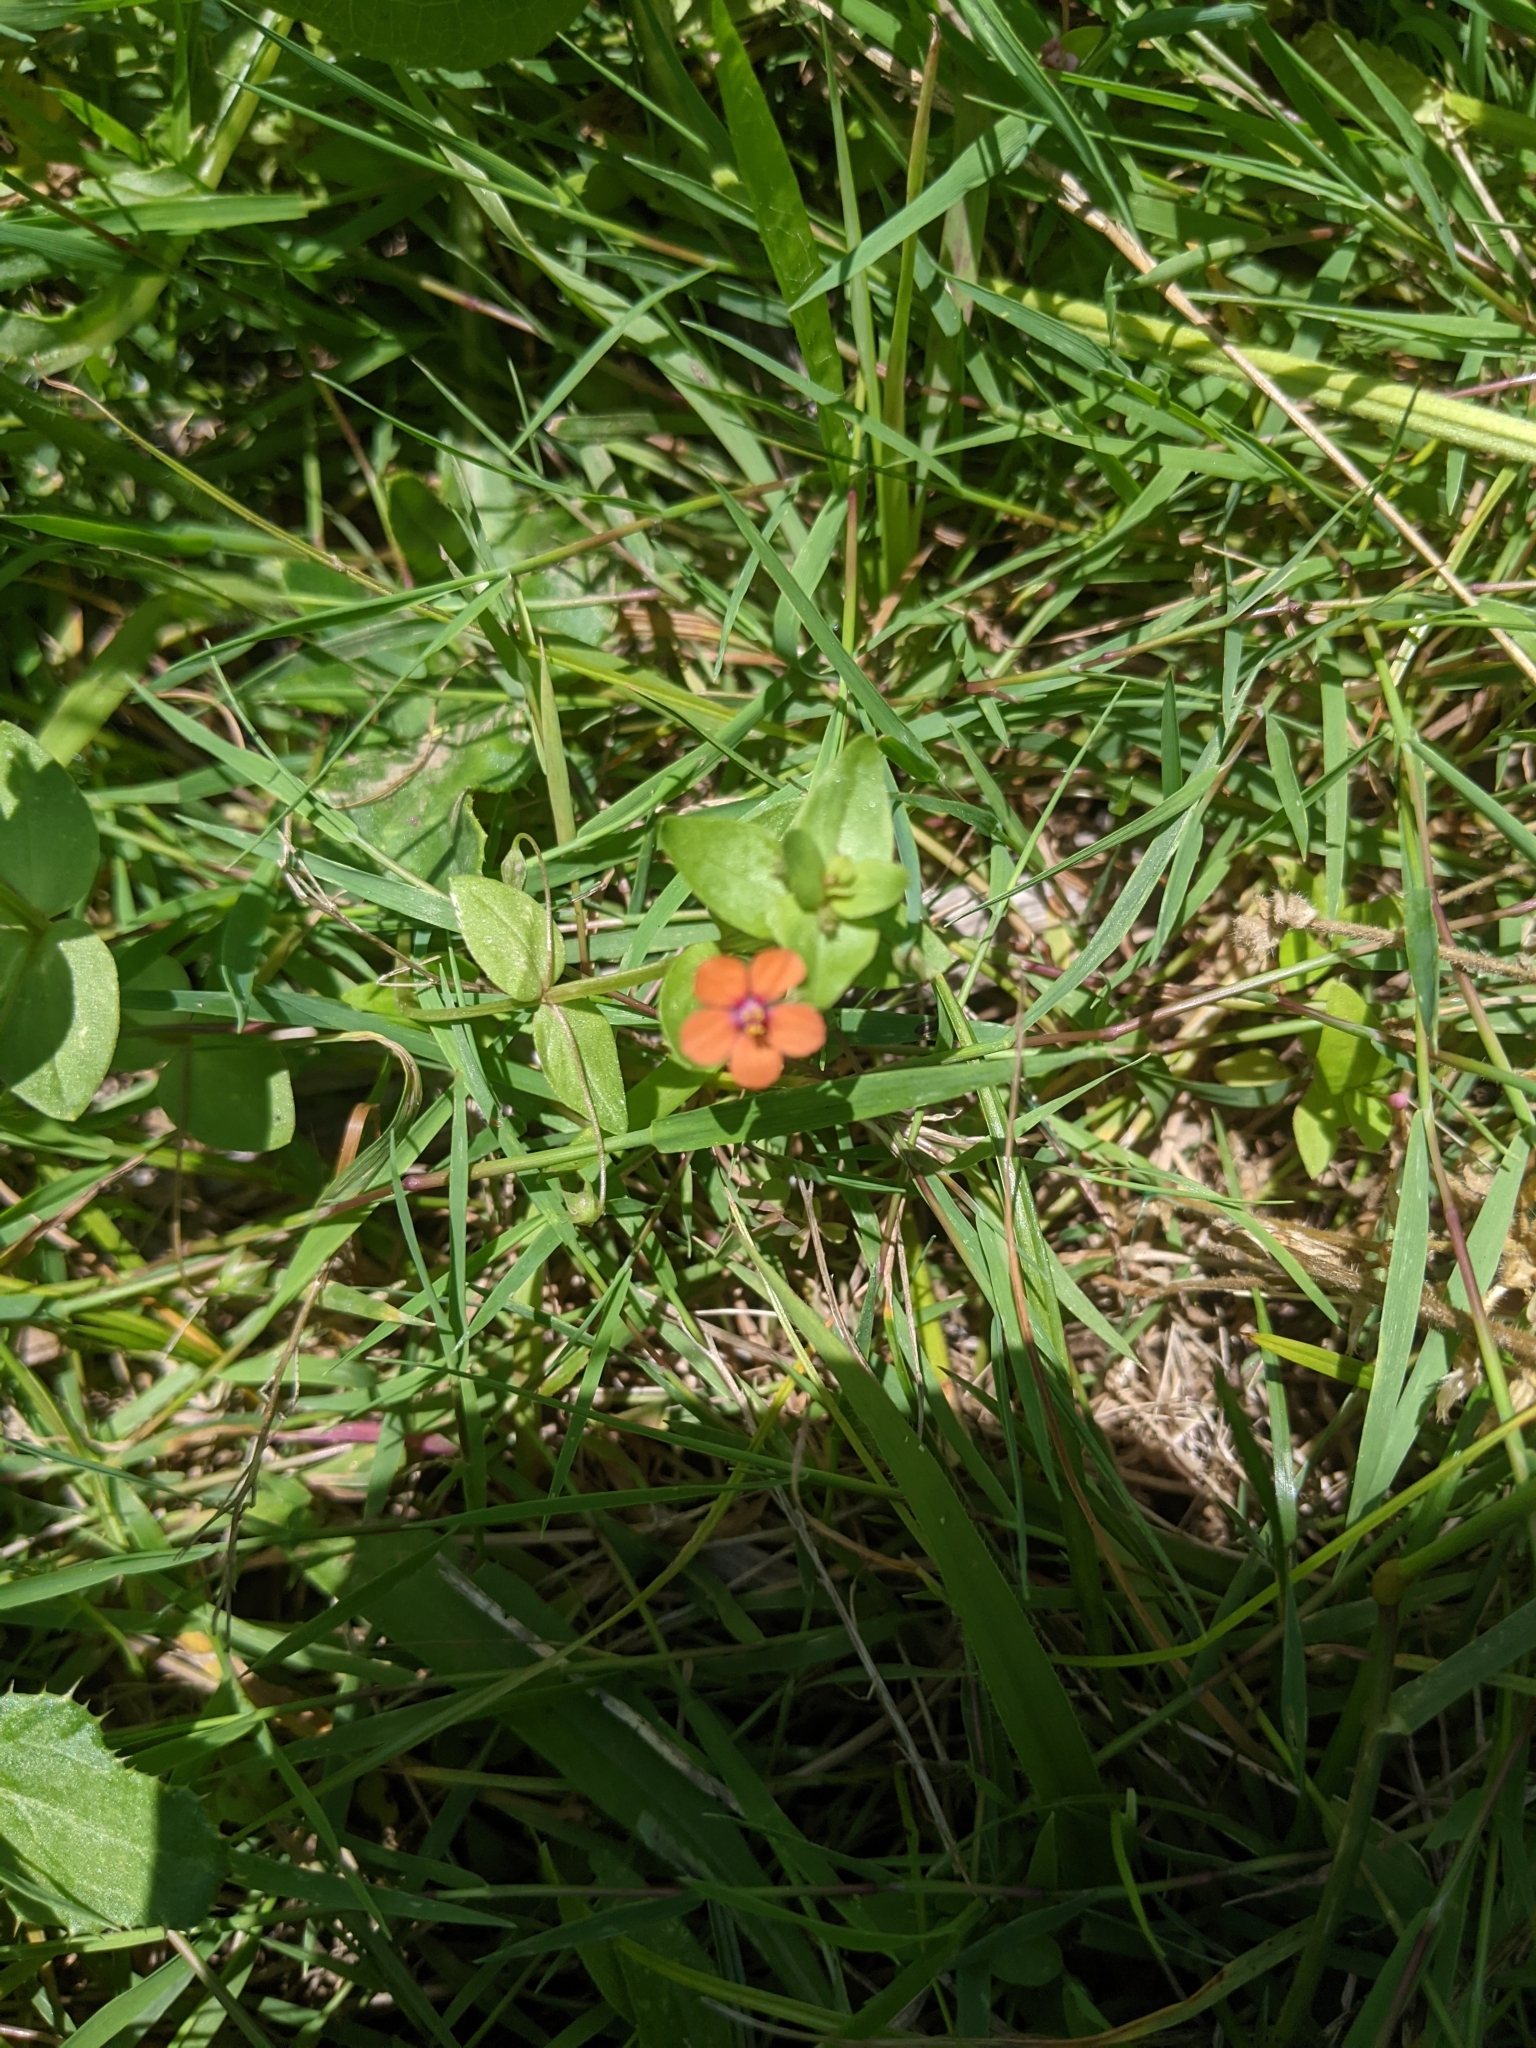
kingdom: Plantae
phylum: Tracheophyta
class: Magnoliopsida
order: Ericales
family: Primulaceae
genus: Lysimachia
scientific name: Lysimachia arvensis
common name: Scarlet pimpernel
